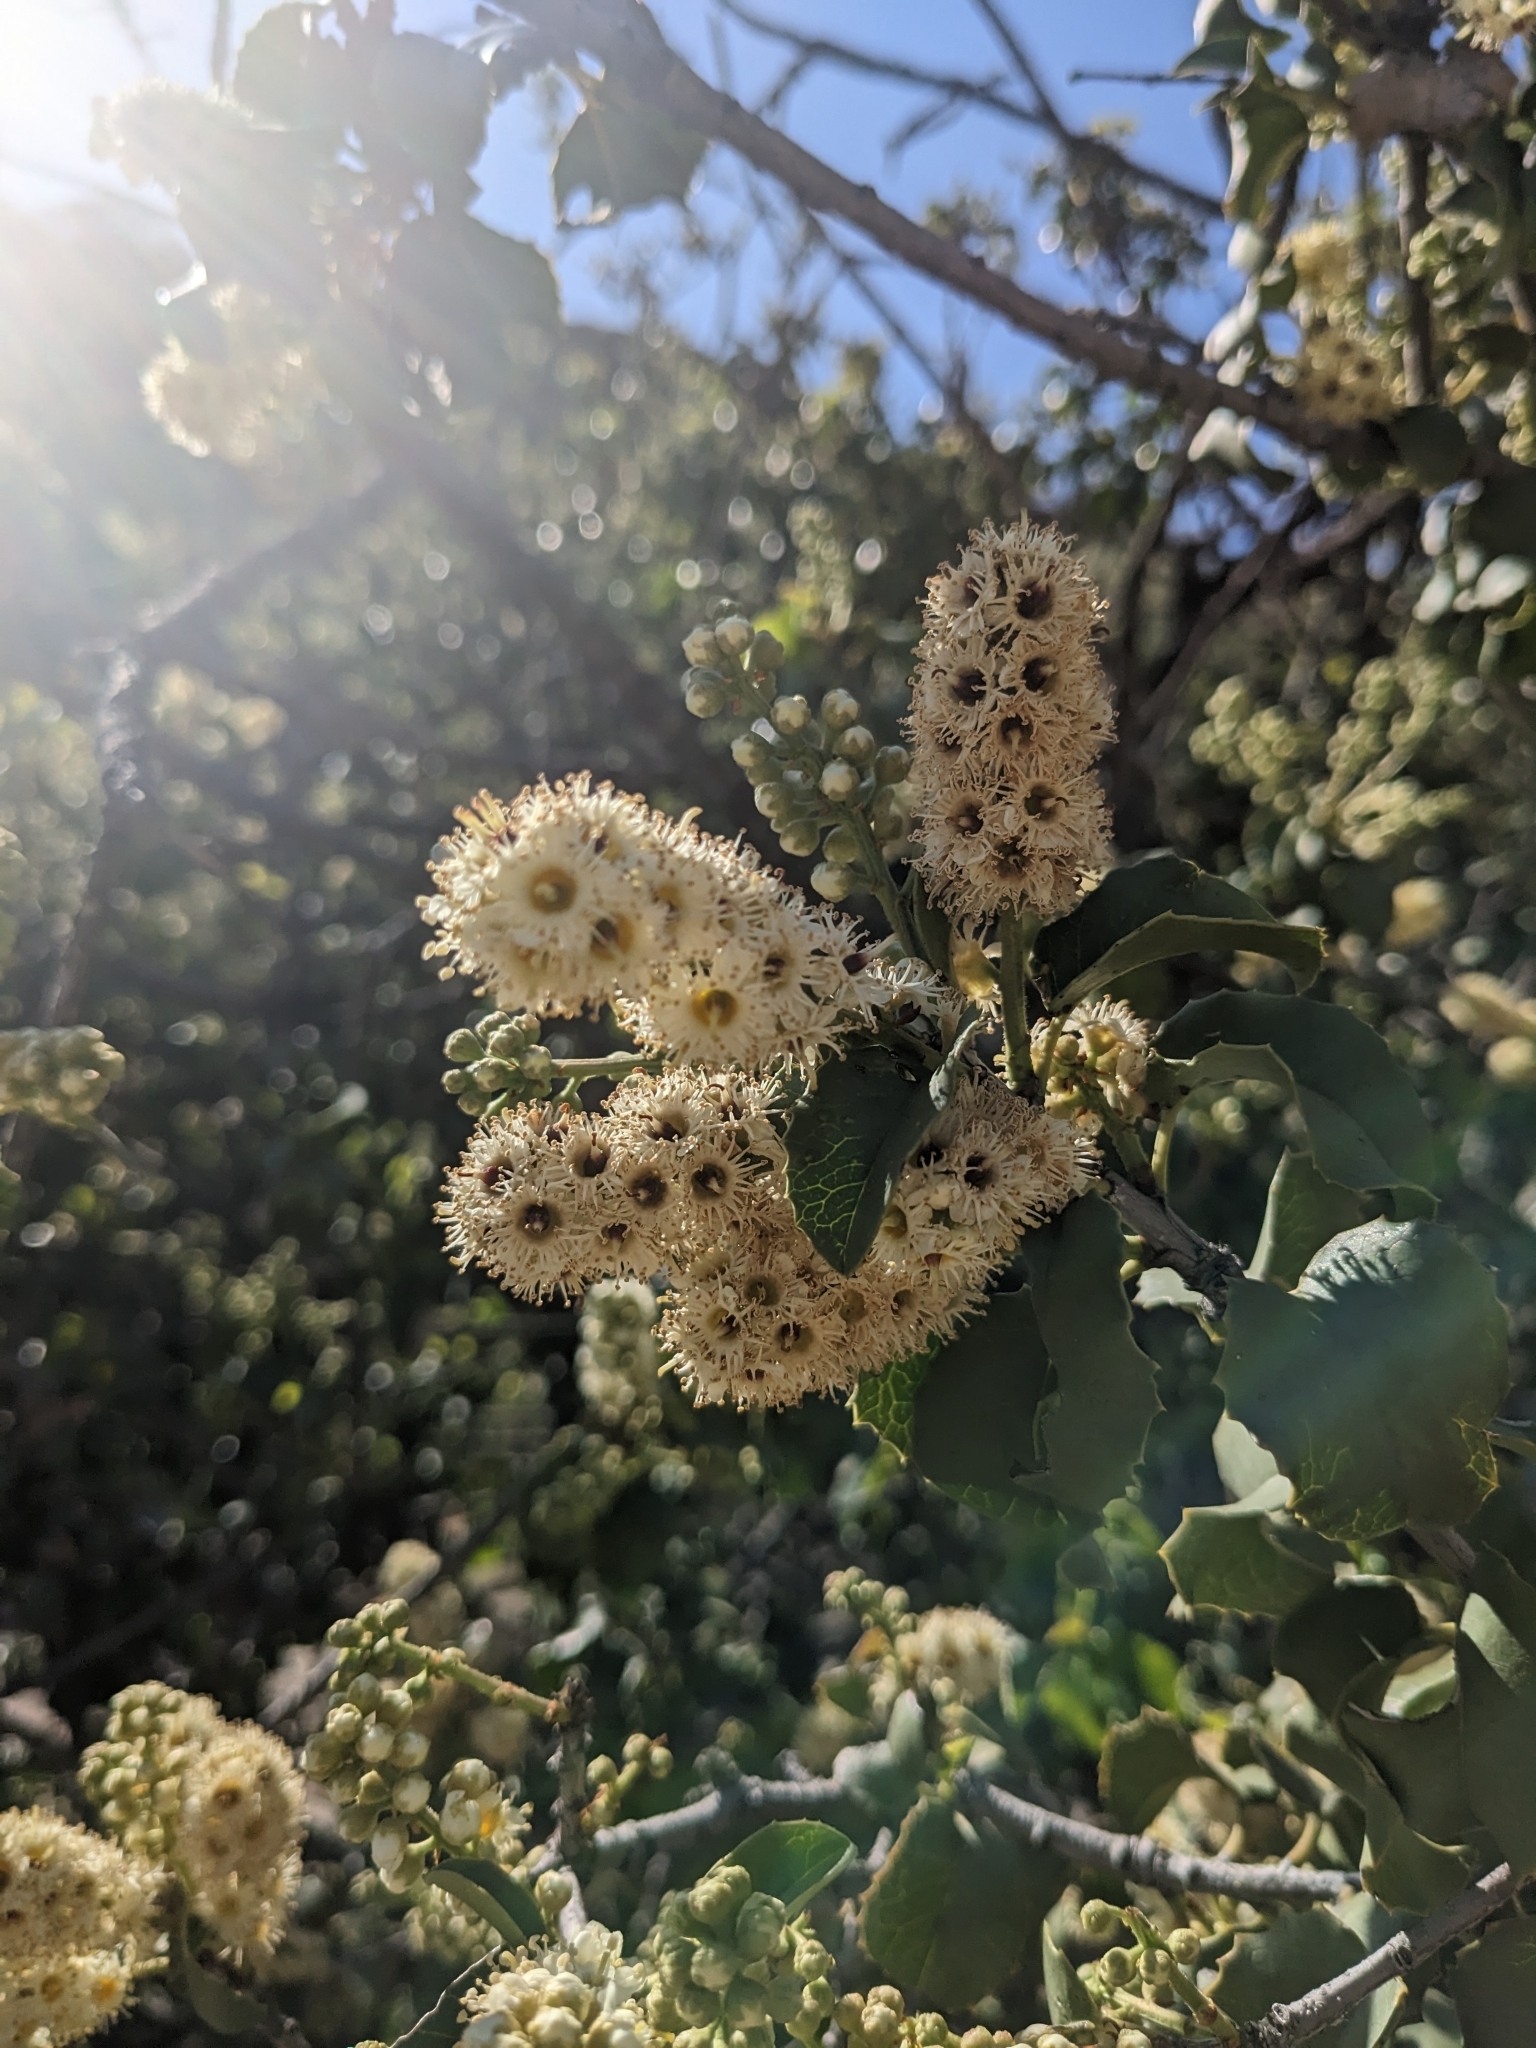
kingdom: Plantae
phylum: Tracheophyta
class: Magnoliopsida
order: Rosales
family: Rosaceae
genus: Prunus
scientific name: Prunus ilicifolia
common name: Hollyleaf cherry
